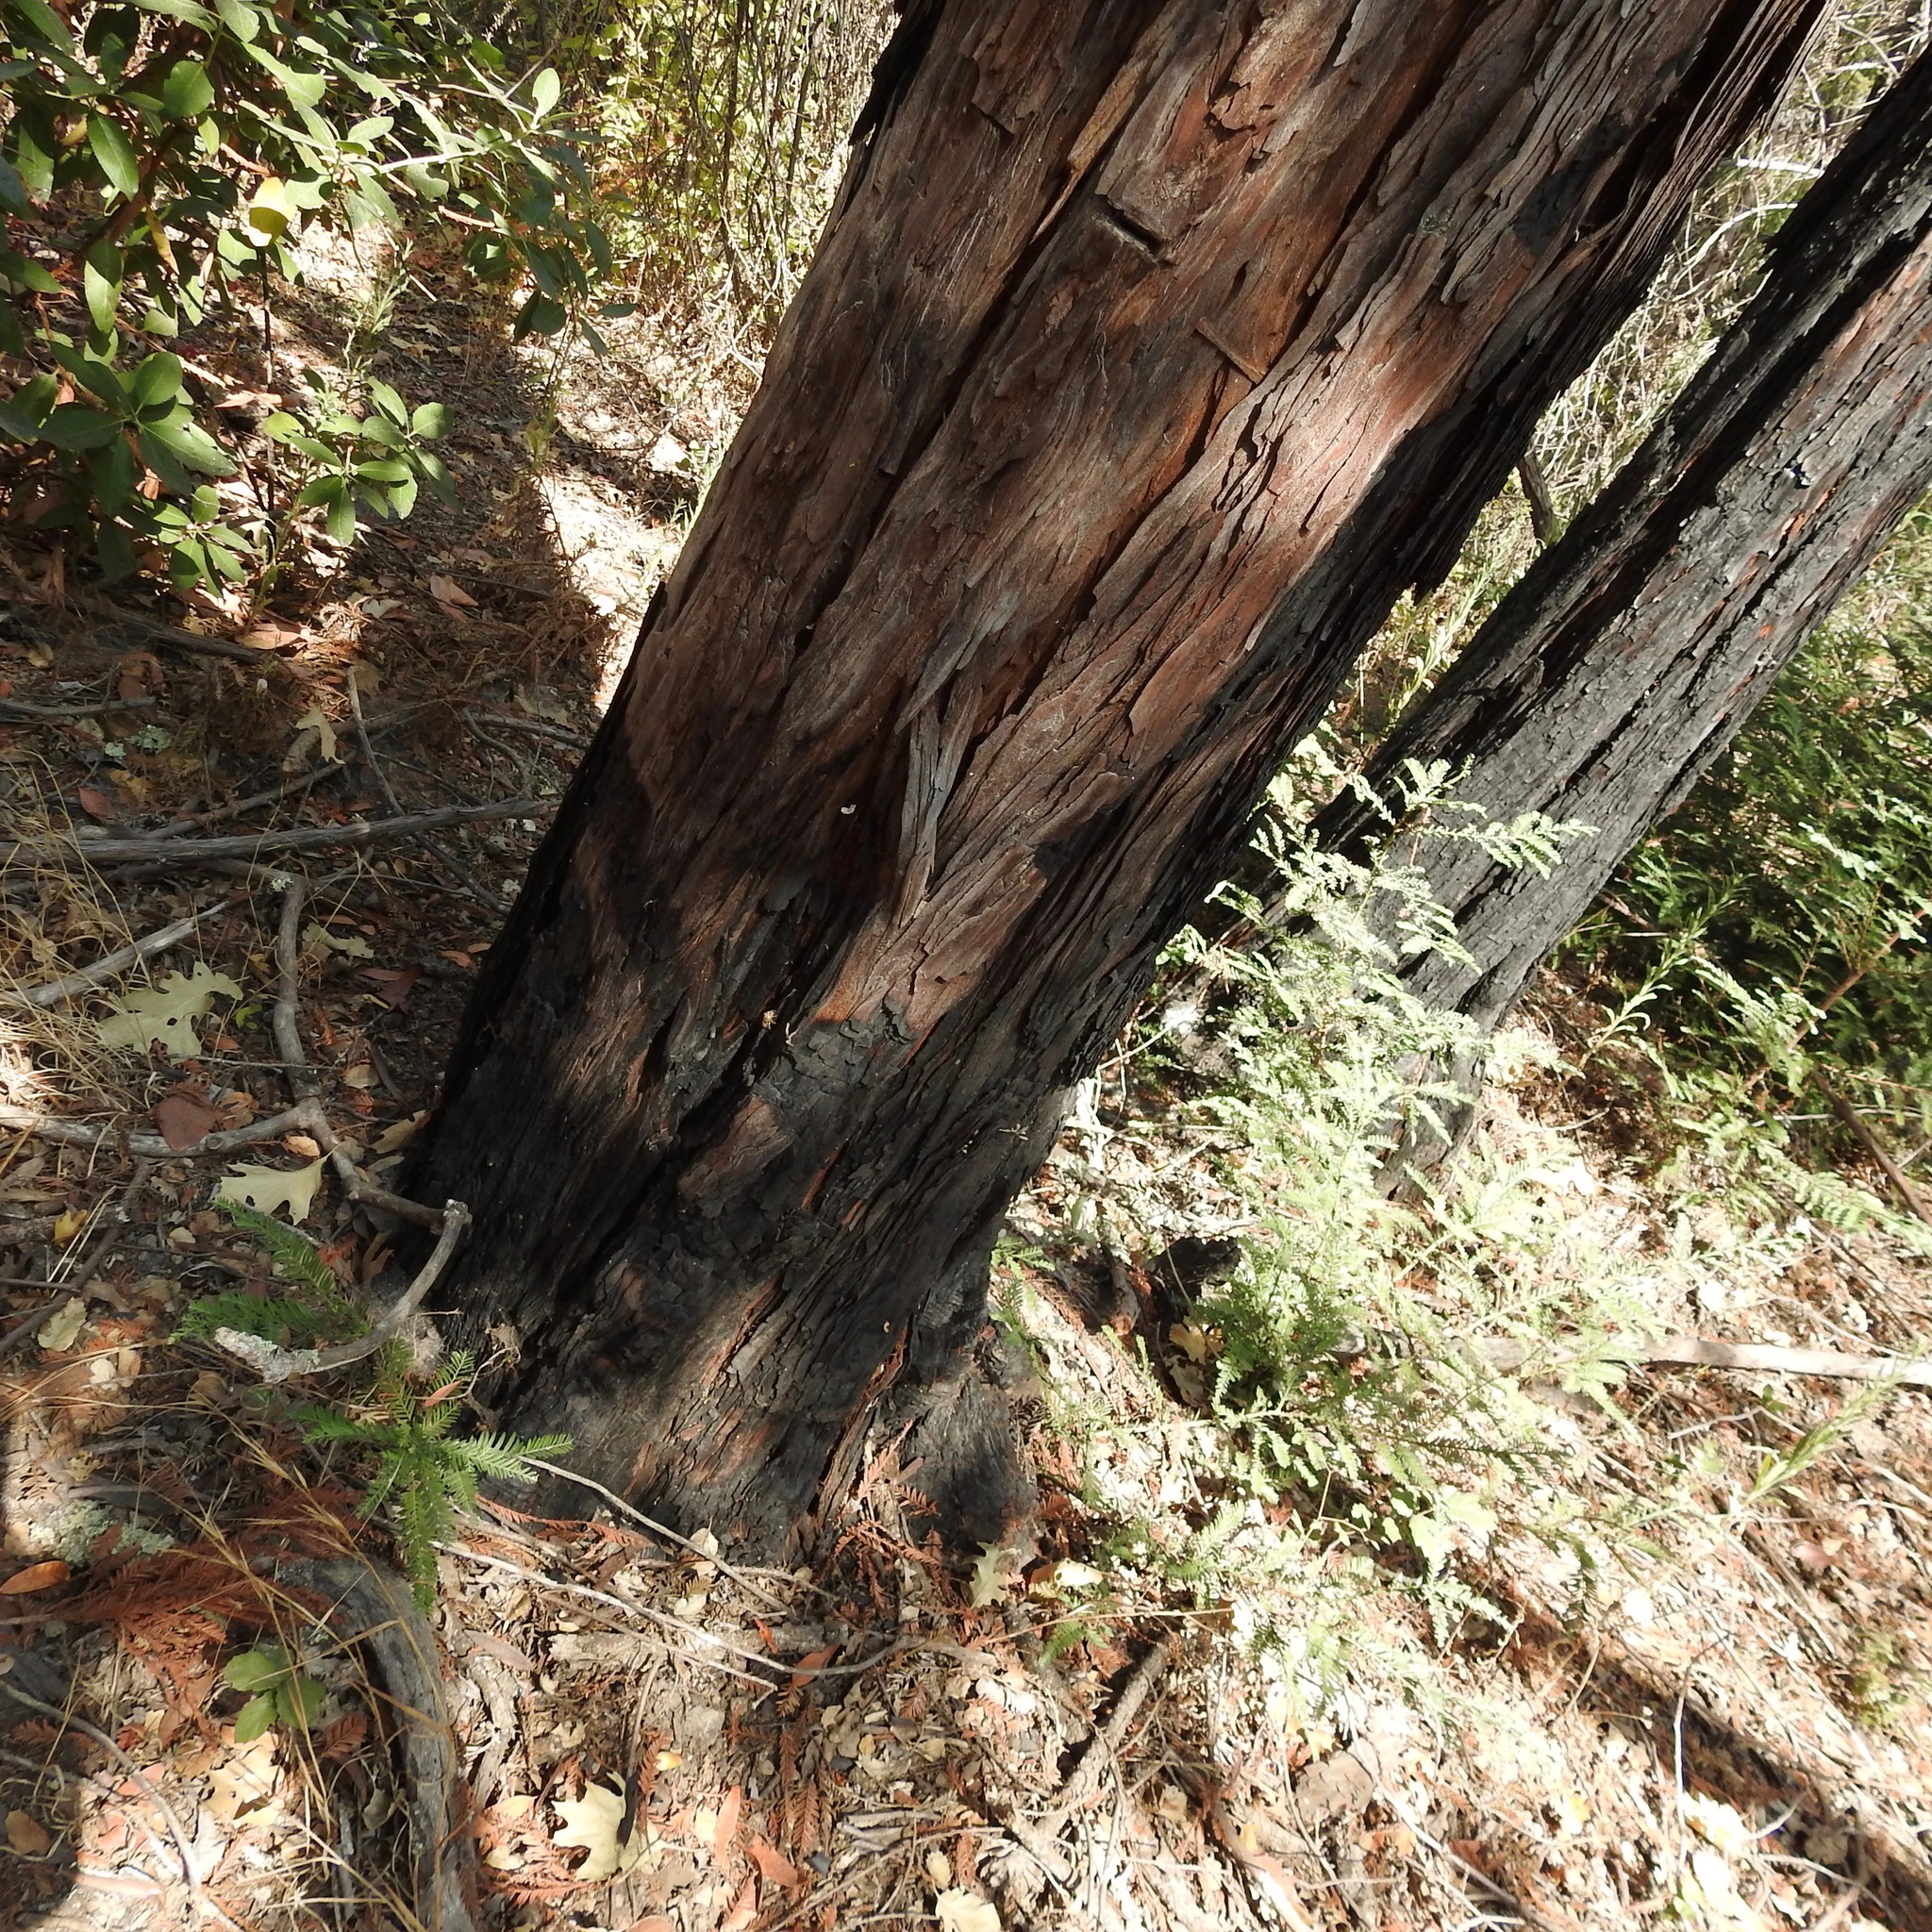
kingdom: Plantae
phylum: Tracheophyta
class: Pinopsida
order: Pinales
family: Cupressaceae
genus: Sequoia
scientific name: Sequoia sempervirens
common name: Coast redwood
